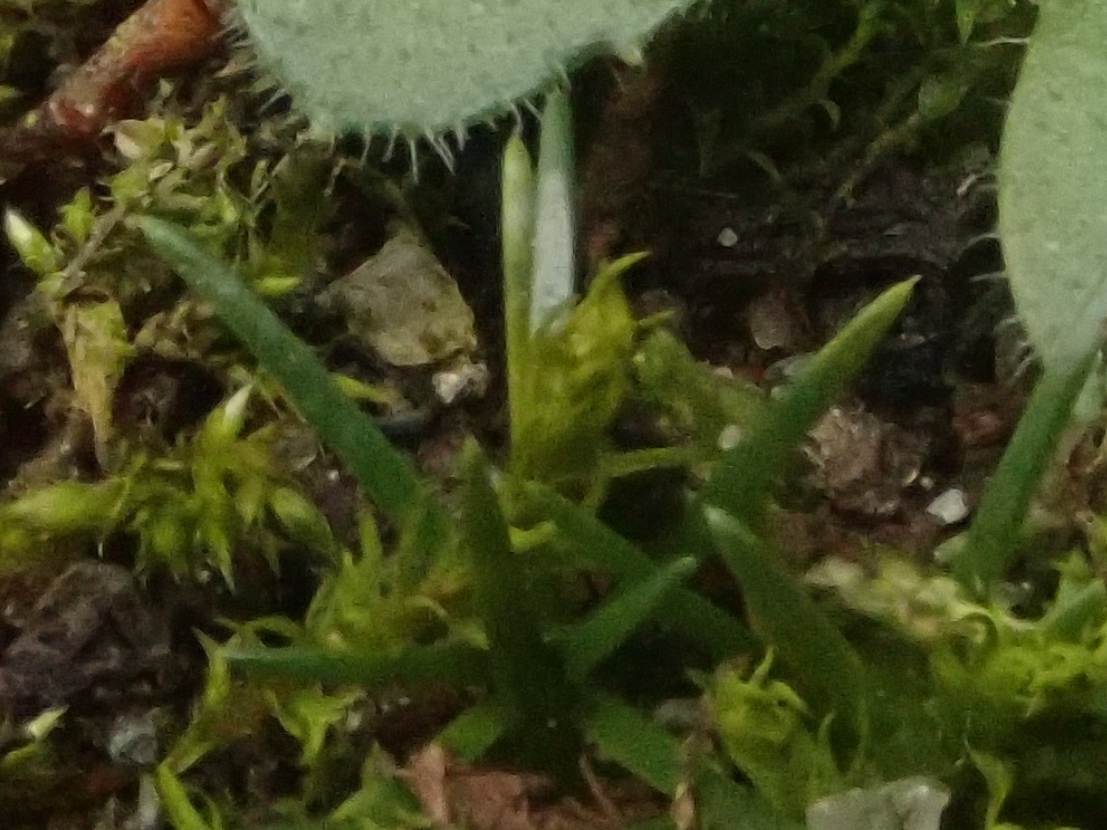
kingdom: Plantae
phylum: Tracheophyta
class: Magnoliopsida
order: Caryophyllales
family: Caryophyllaceae
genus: Sagina
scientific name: Sagina procumbens
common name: Procumbent pearlwort
